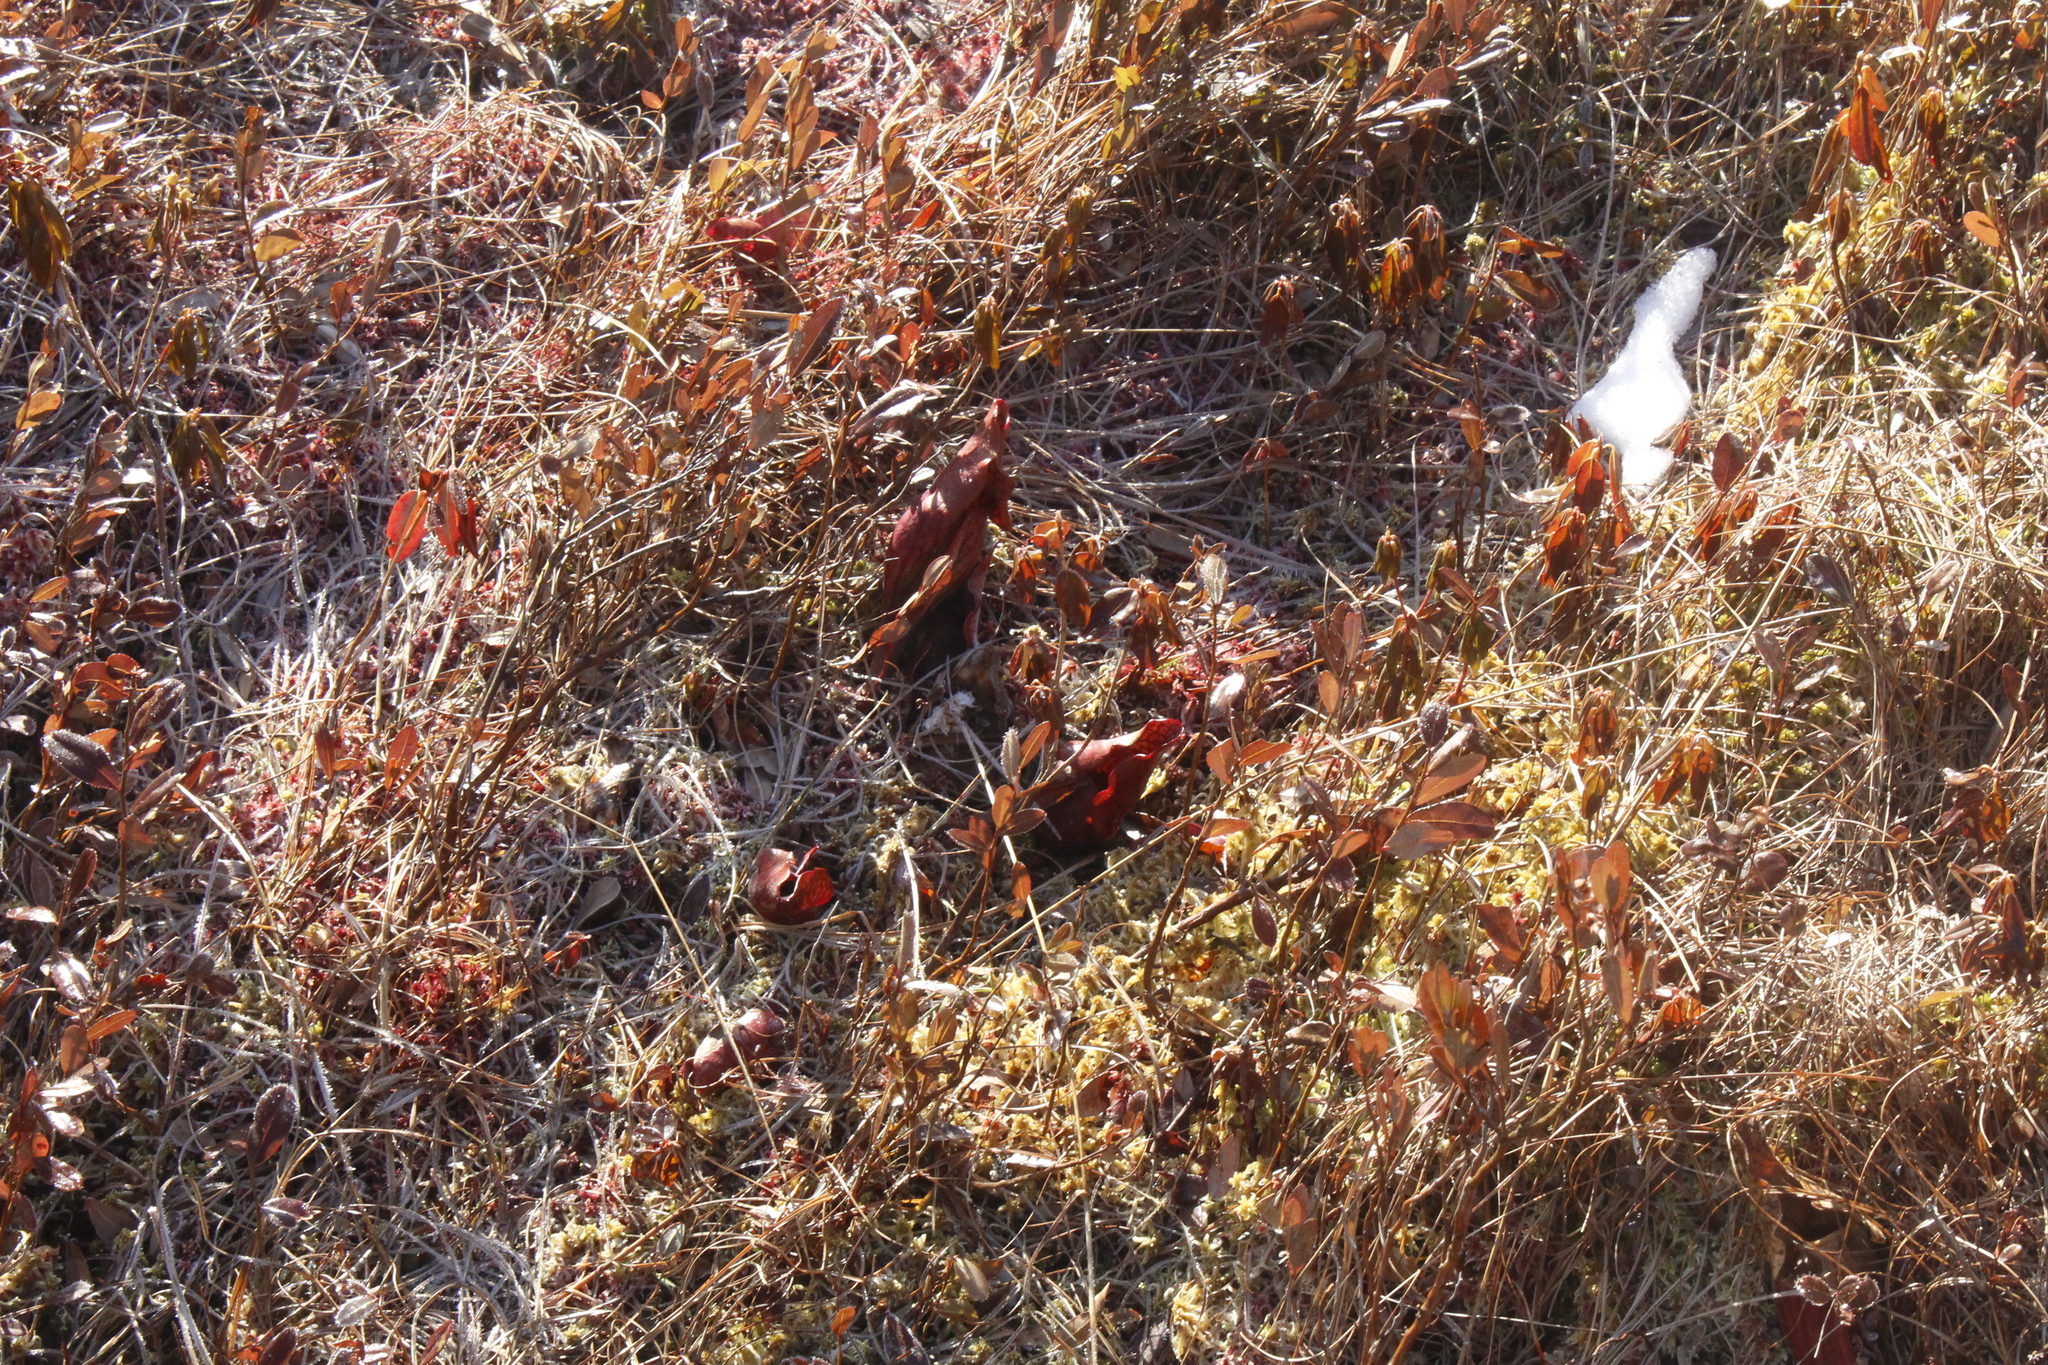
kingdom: Plantae
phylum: Tracheophyta
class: Magnoliopsida
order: Ericales
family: Ericaceae
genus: Chamaedaphne
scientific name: Chamaedaphne calyculata
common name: Leatherleaf
